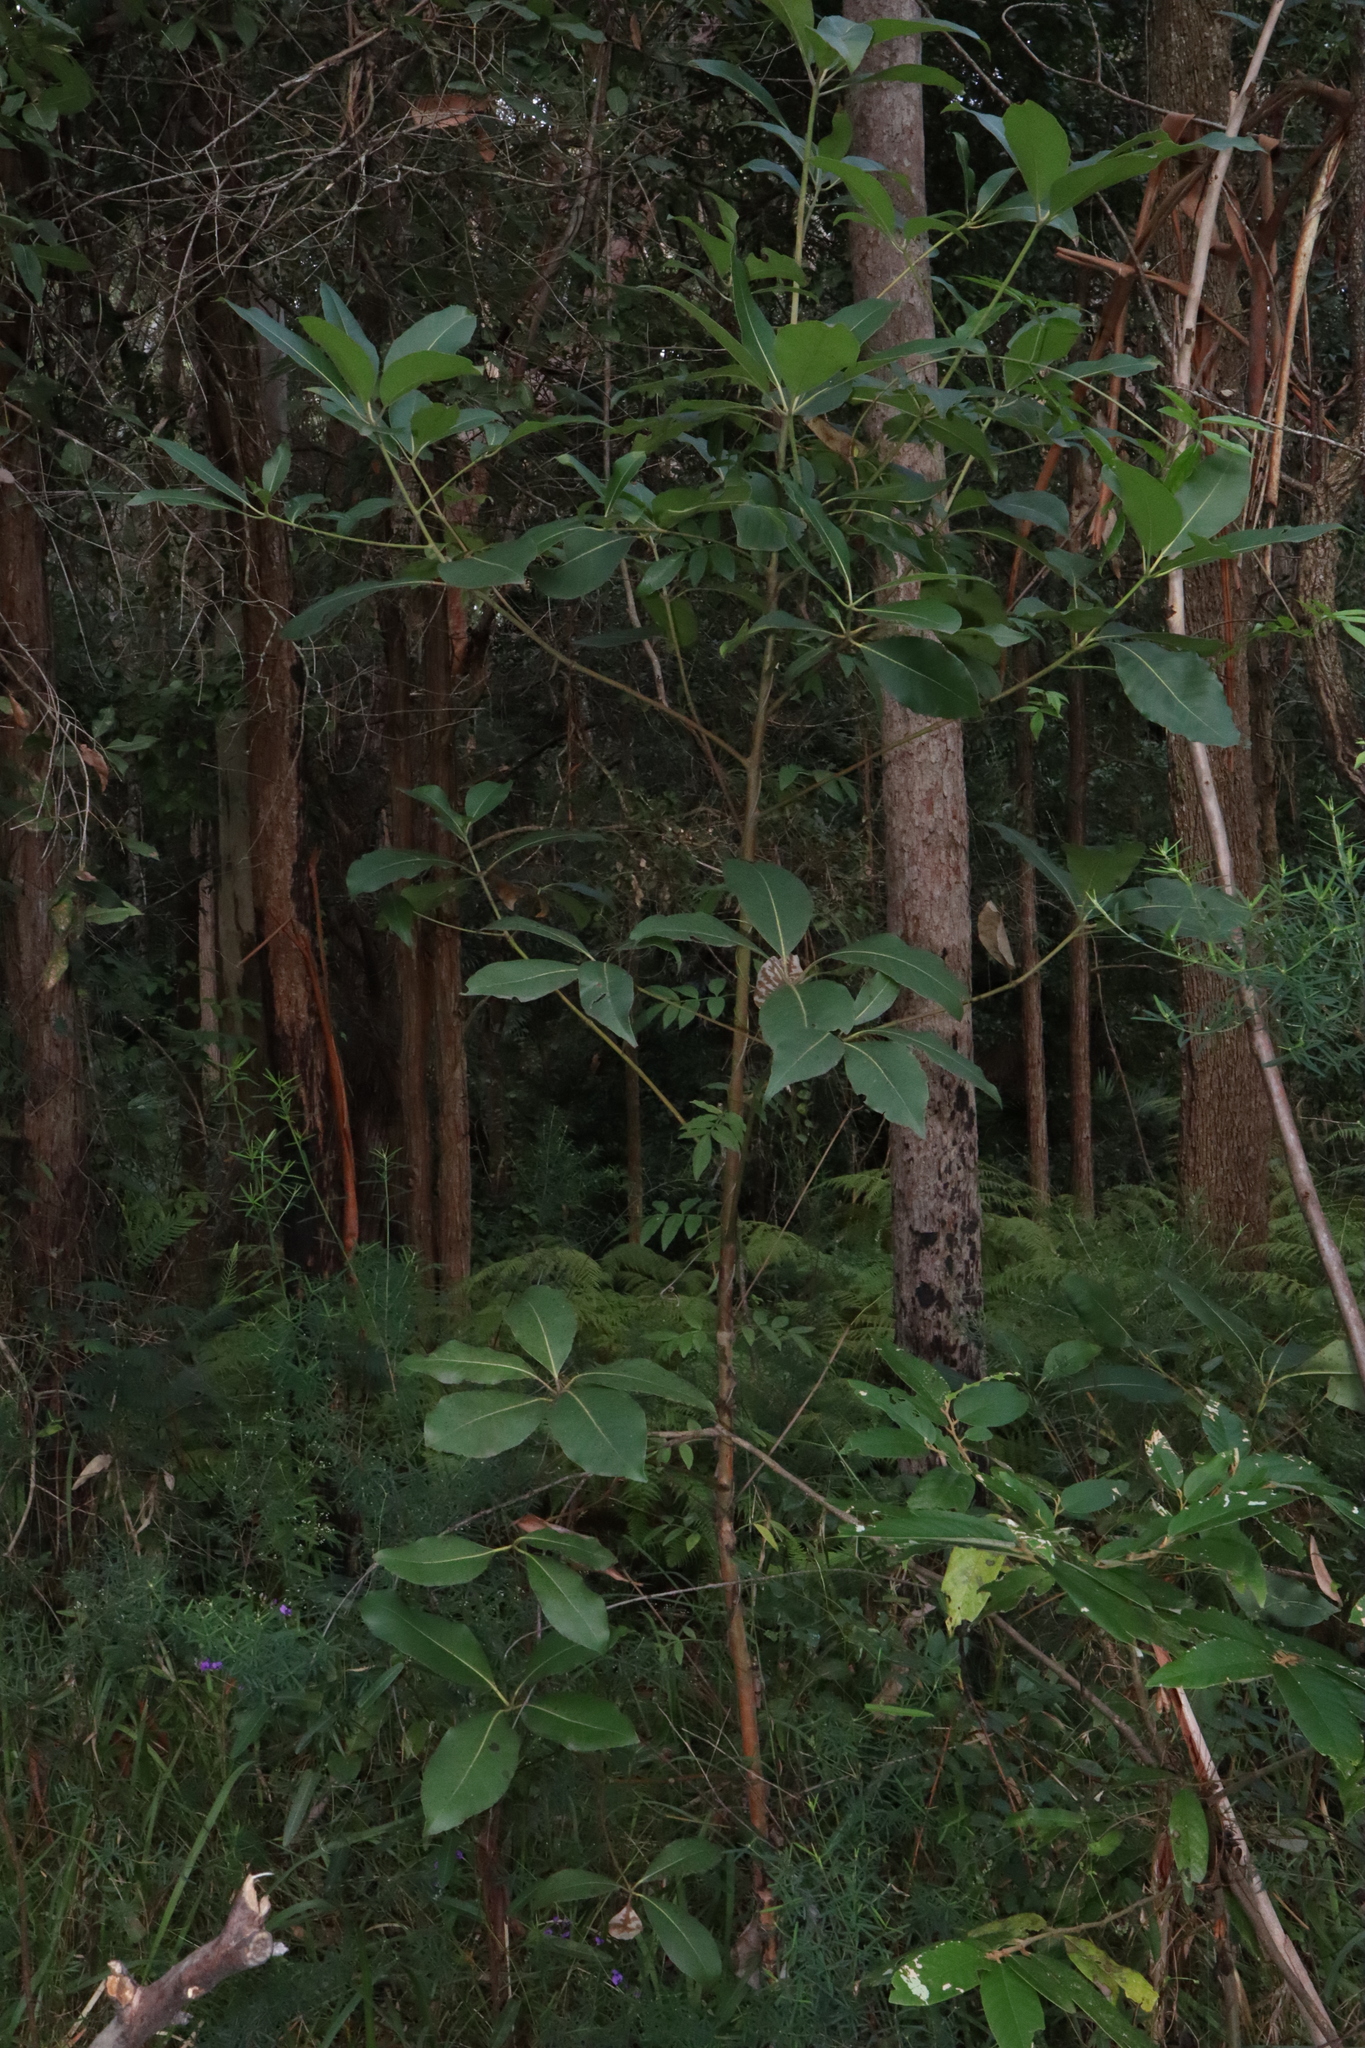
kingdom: Plantae
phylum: Tracheophyta
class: Magnoliopsida
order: Myrtales
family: Myrtaceae
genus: Lophostemon
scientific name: Lophostemon confertus
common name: Brisbane box
